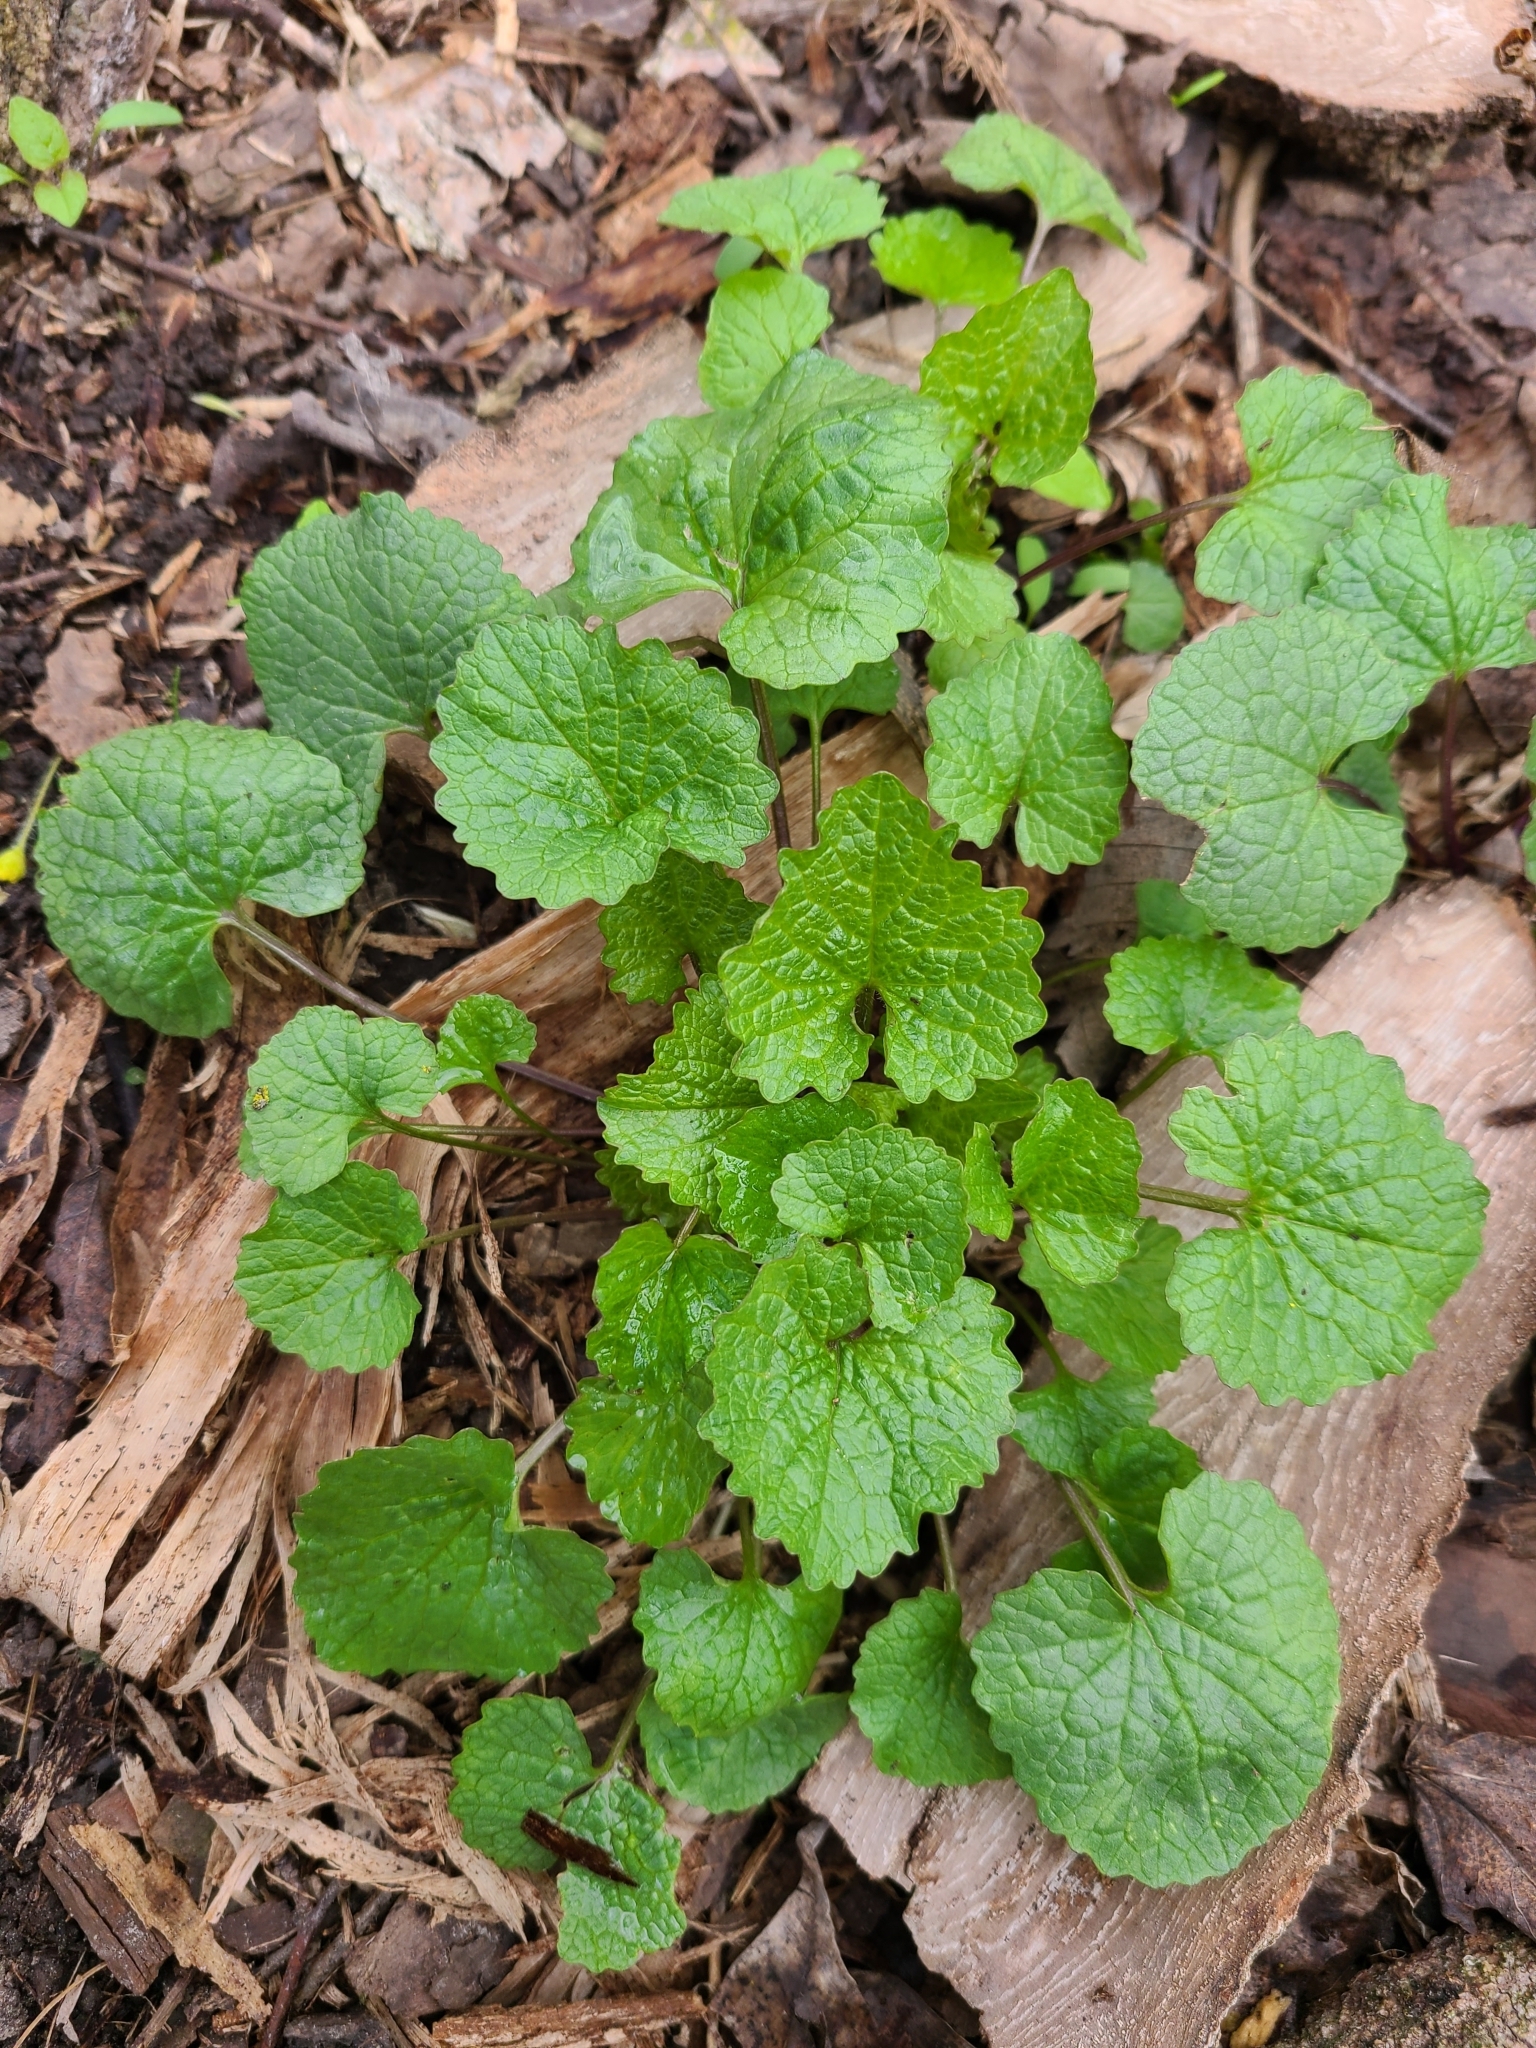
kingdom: Plantae
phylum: Tracheophyta
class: Magnoliopsida
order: Brassicales
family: Brassicaceae
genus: Alliaria
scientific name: Alliaria petiolata
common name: Garlic mustard
